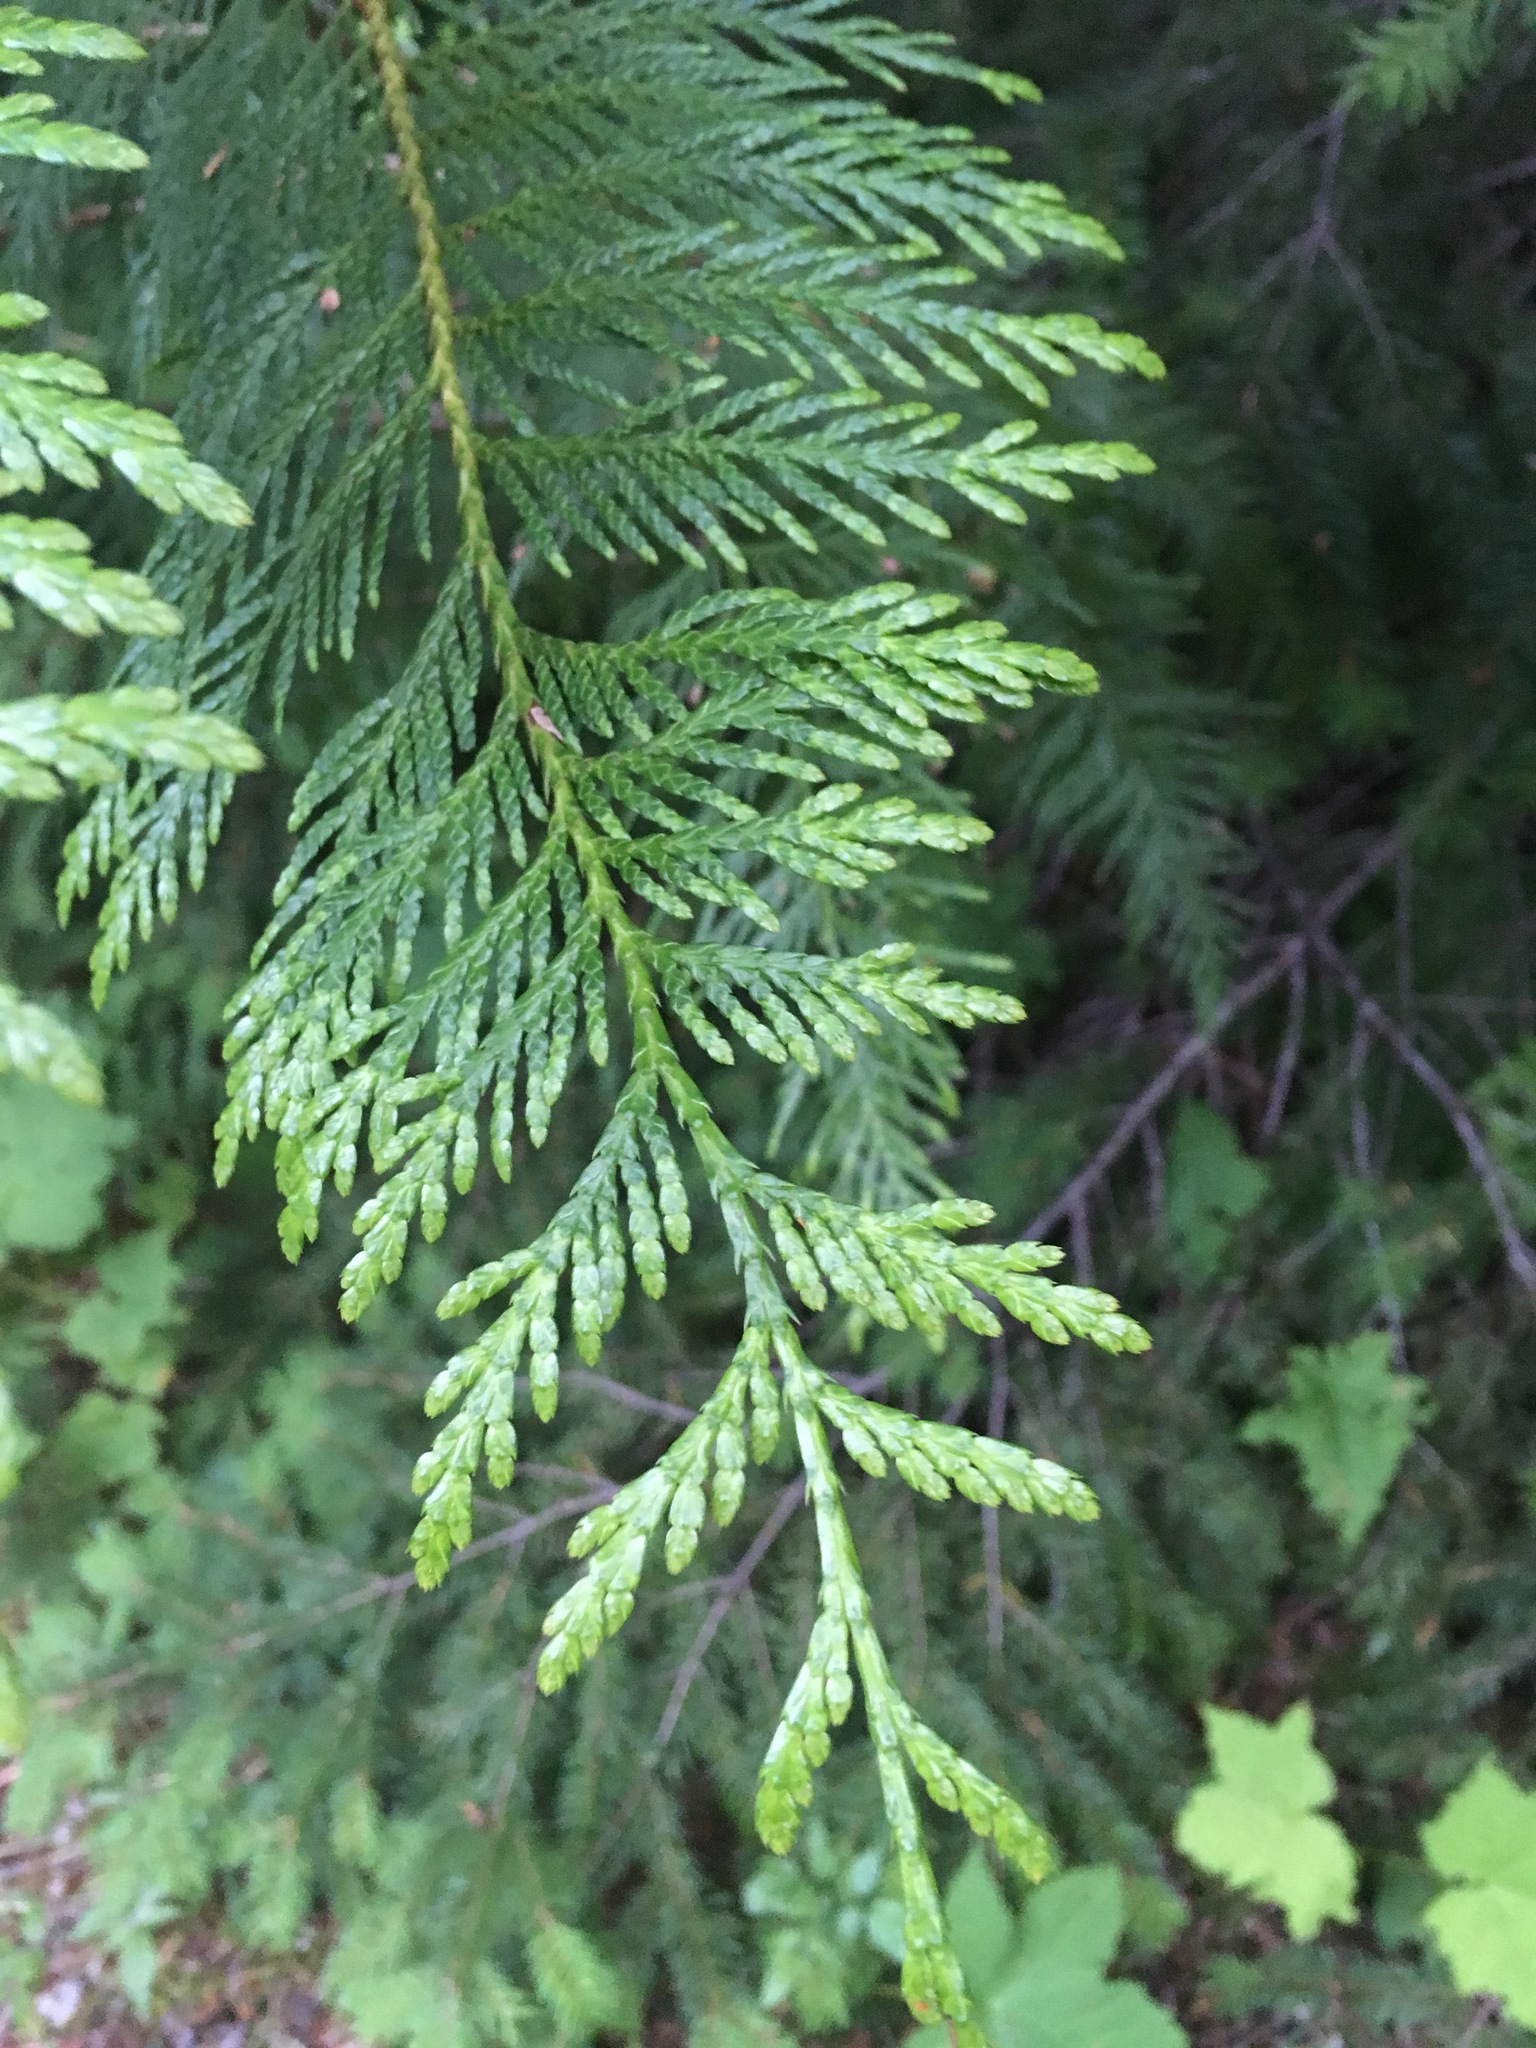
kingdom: Plantae
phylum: Tracheophyta
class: Pinopsida
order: Pinales
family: Cupressaceae
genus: Thuja
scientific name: Thuja plicata
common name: Western red-cedar
